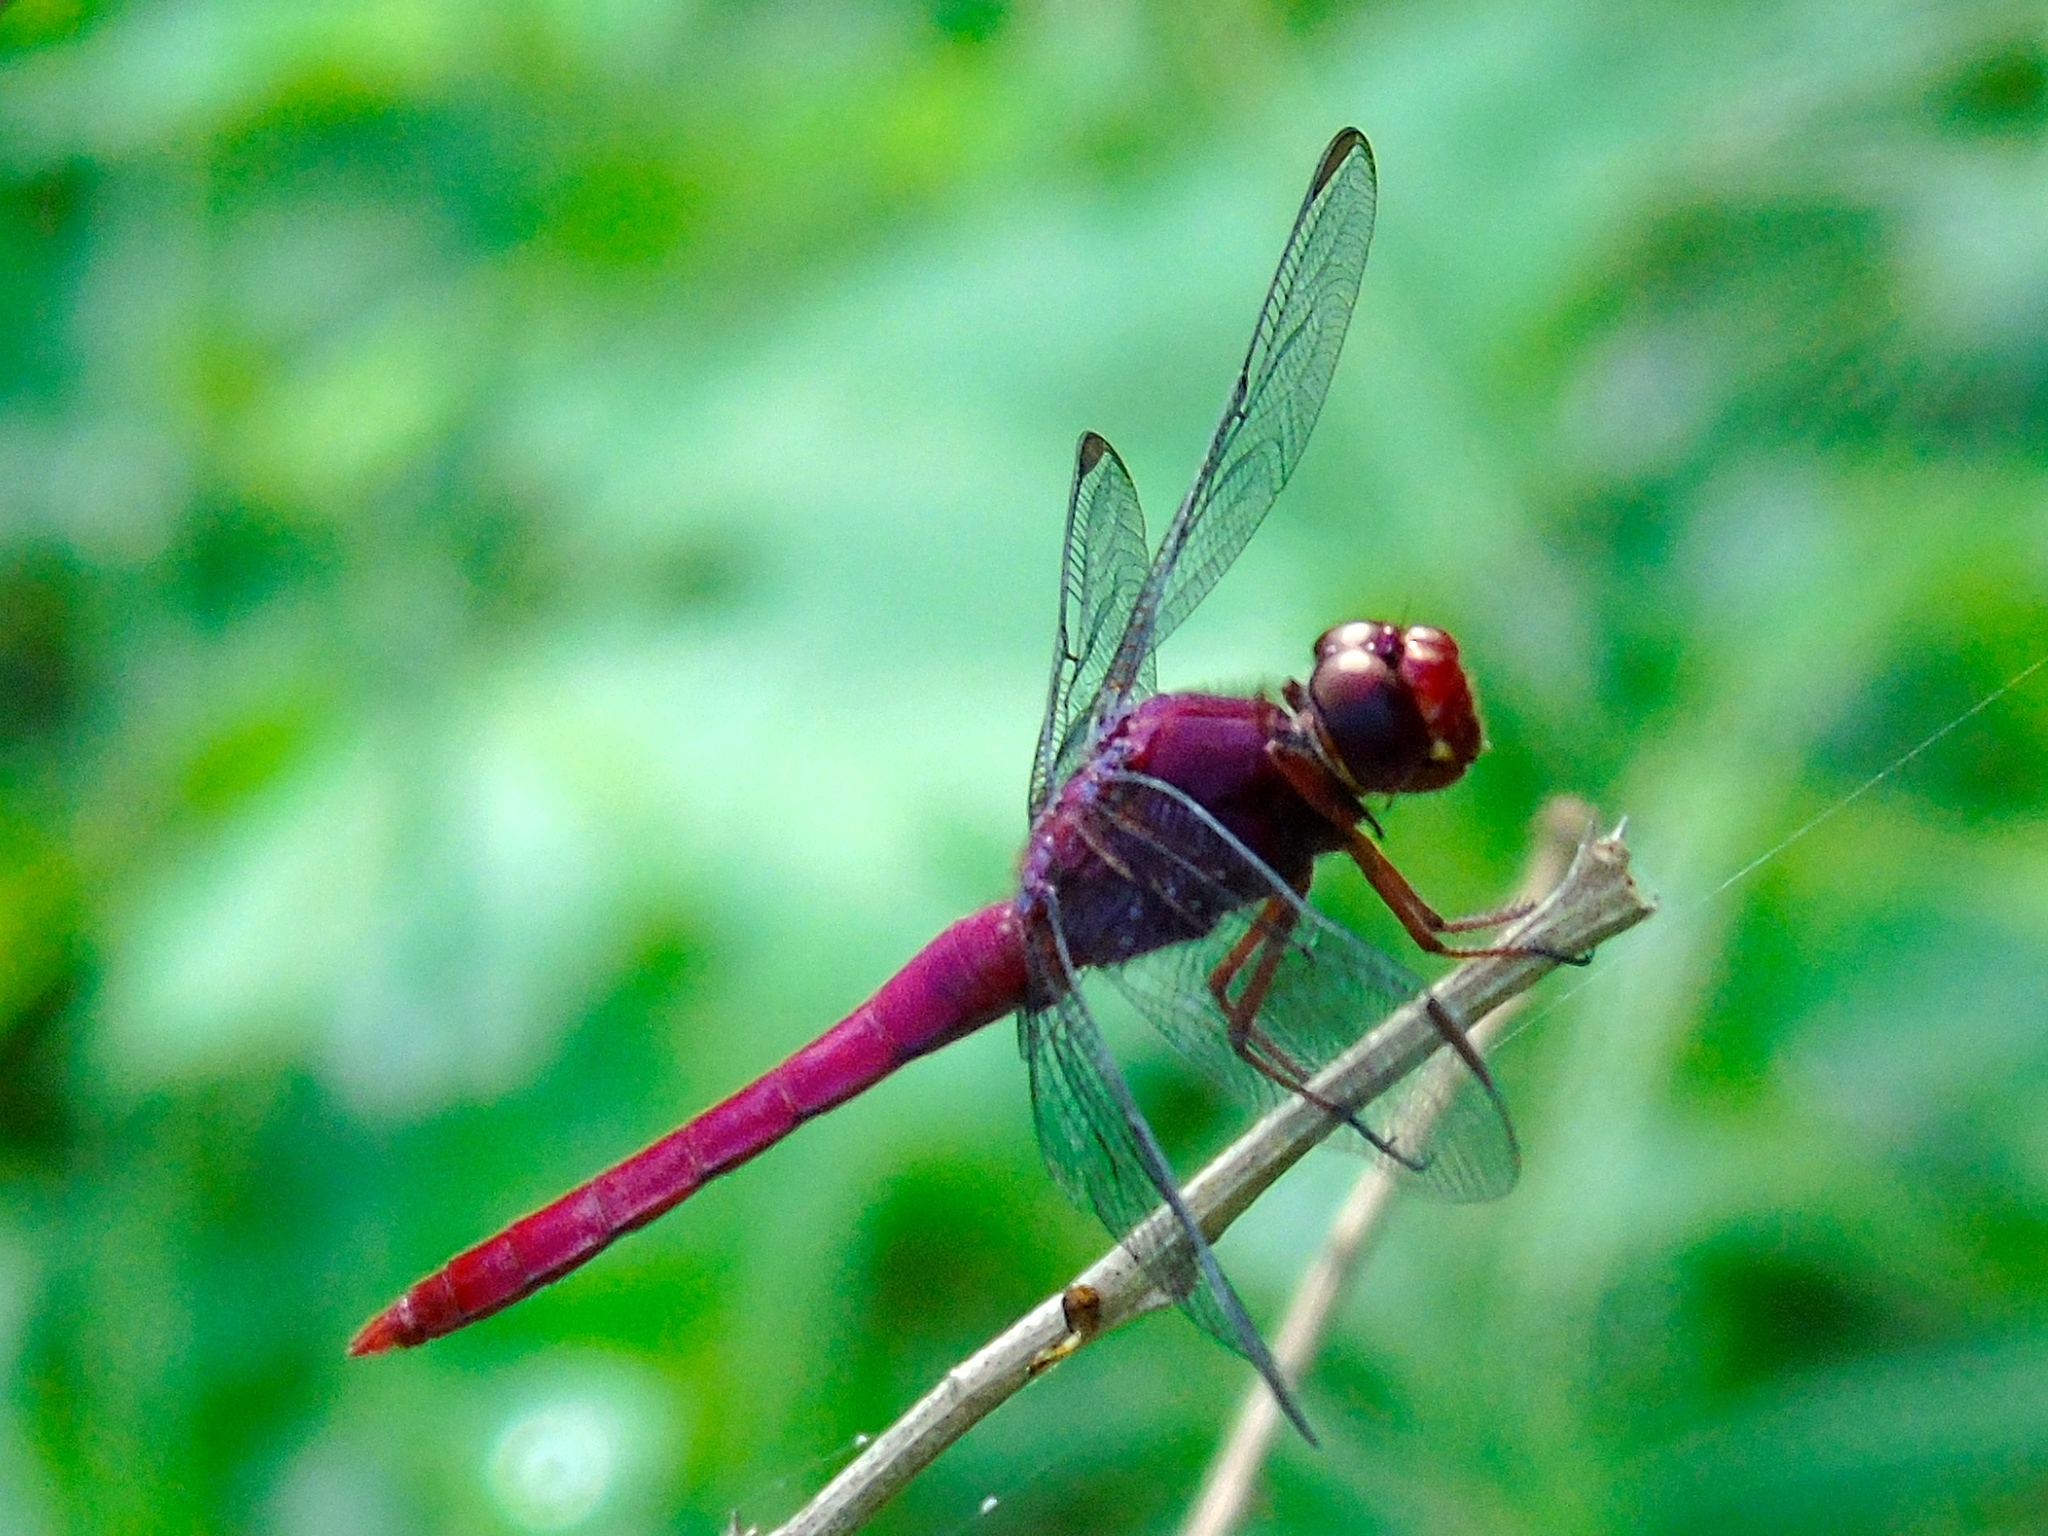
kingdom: Animalia
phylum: Arthropoda
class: Insecta
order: Odonata
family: Libellulidae
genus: Orthemis
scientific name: Orthemis discolor
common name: Carmine skimmer
